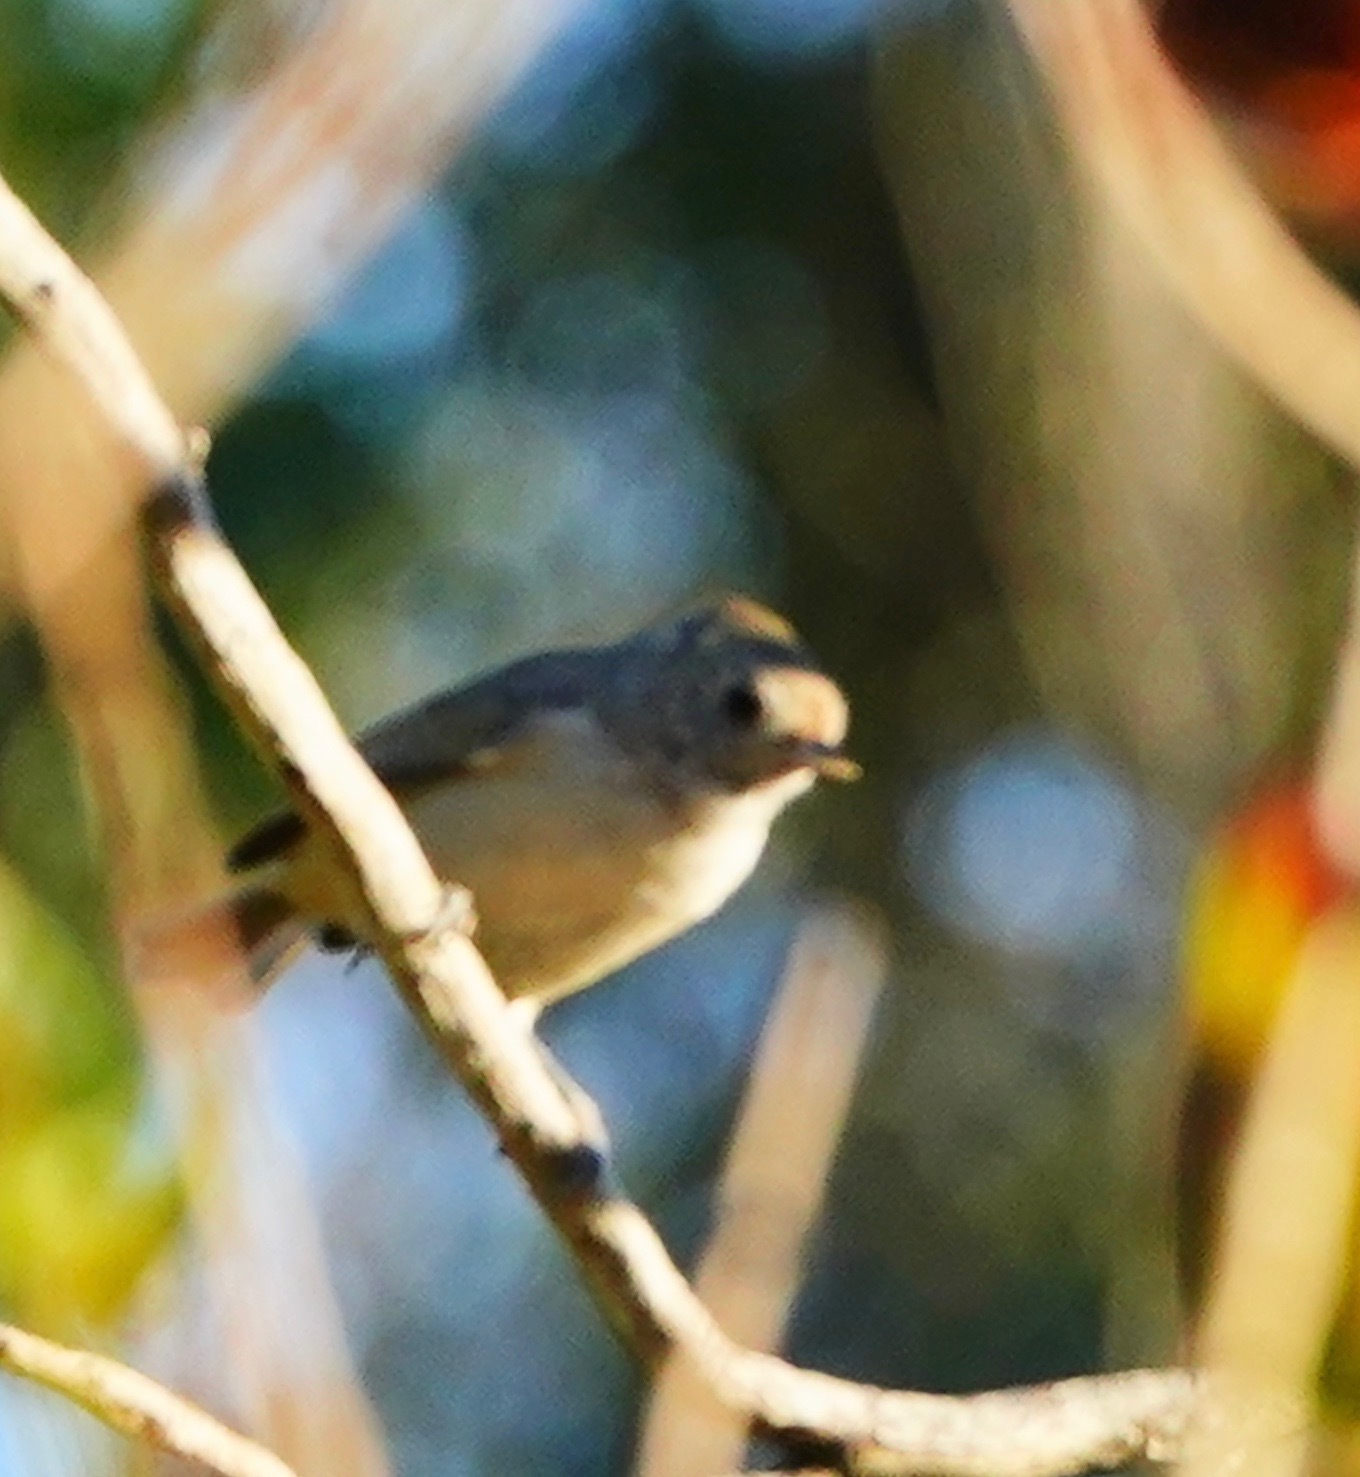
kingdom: Animalia
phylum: Chordata
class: Aves
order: Passeriformes
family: Paridae
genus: Baeolophus
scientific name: Baeolophus inornatus
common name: Oak titmouse
